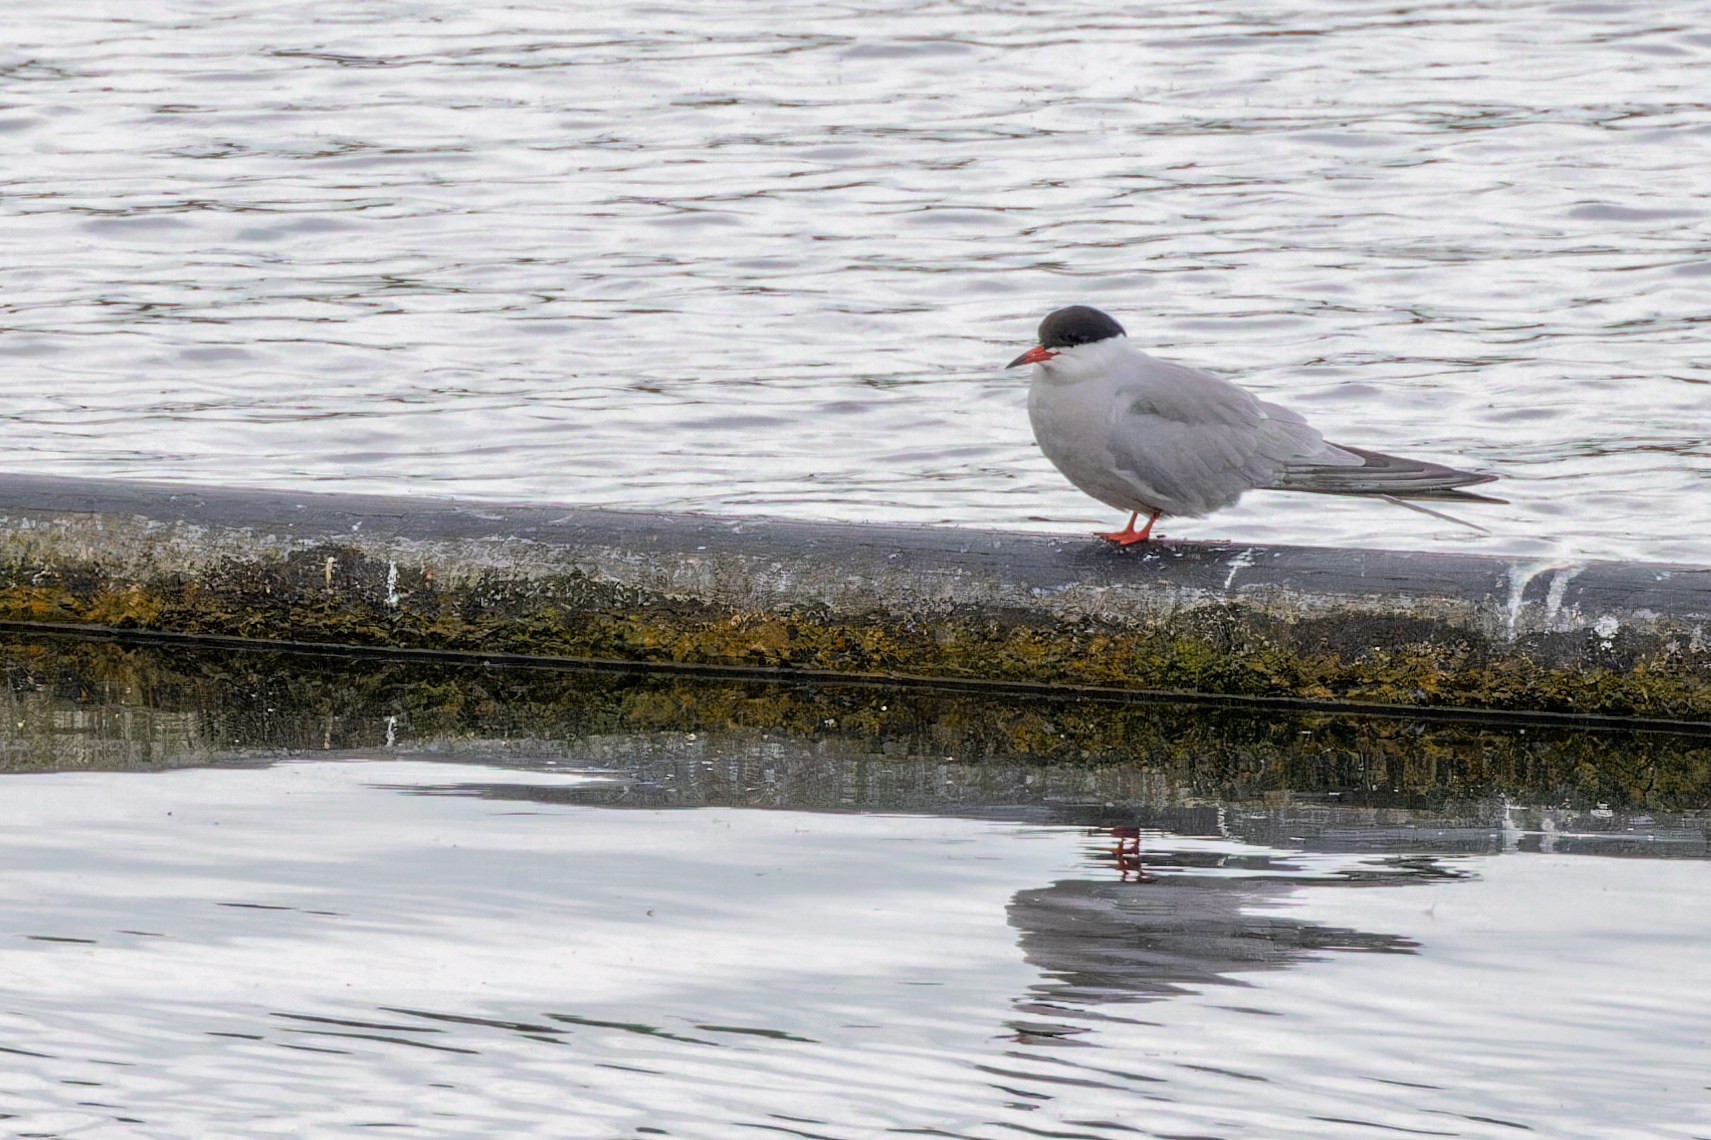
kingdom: Animalia
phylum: Chordata
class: Aves
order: Charadriiformes
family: Laridae
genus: Sterna
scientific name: Sterna hirundo
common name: Common tern
